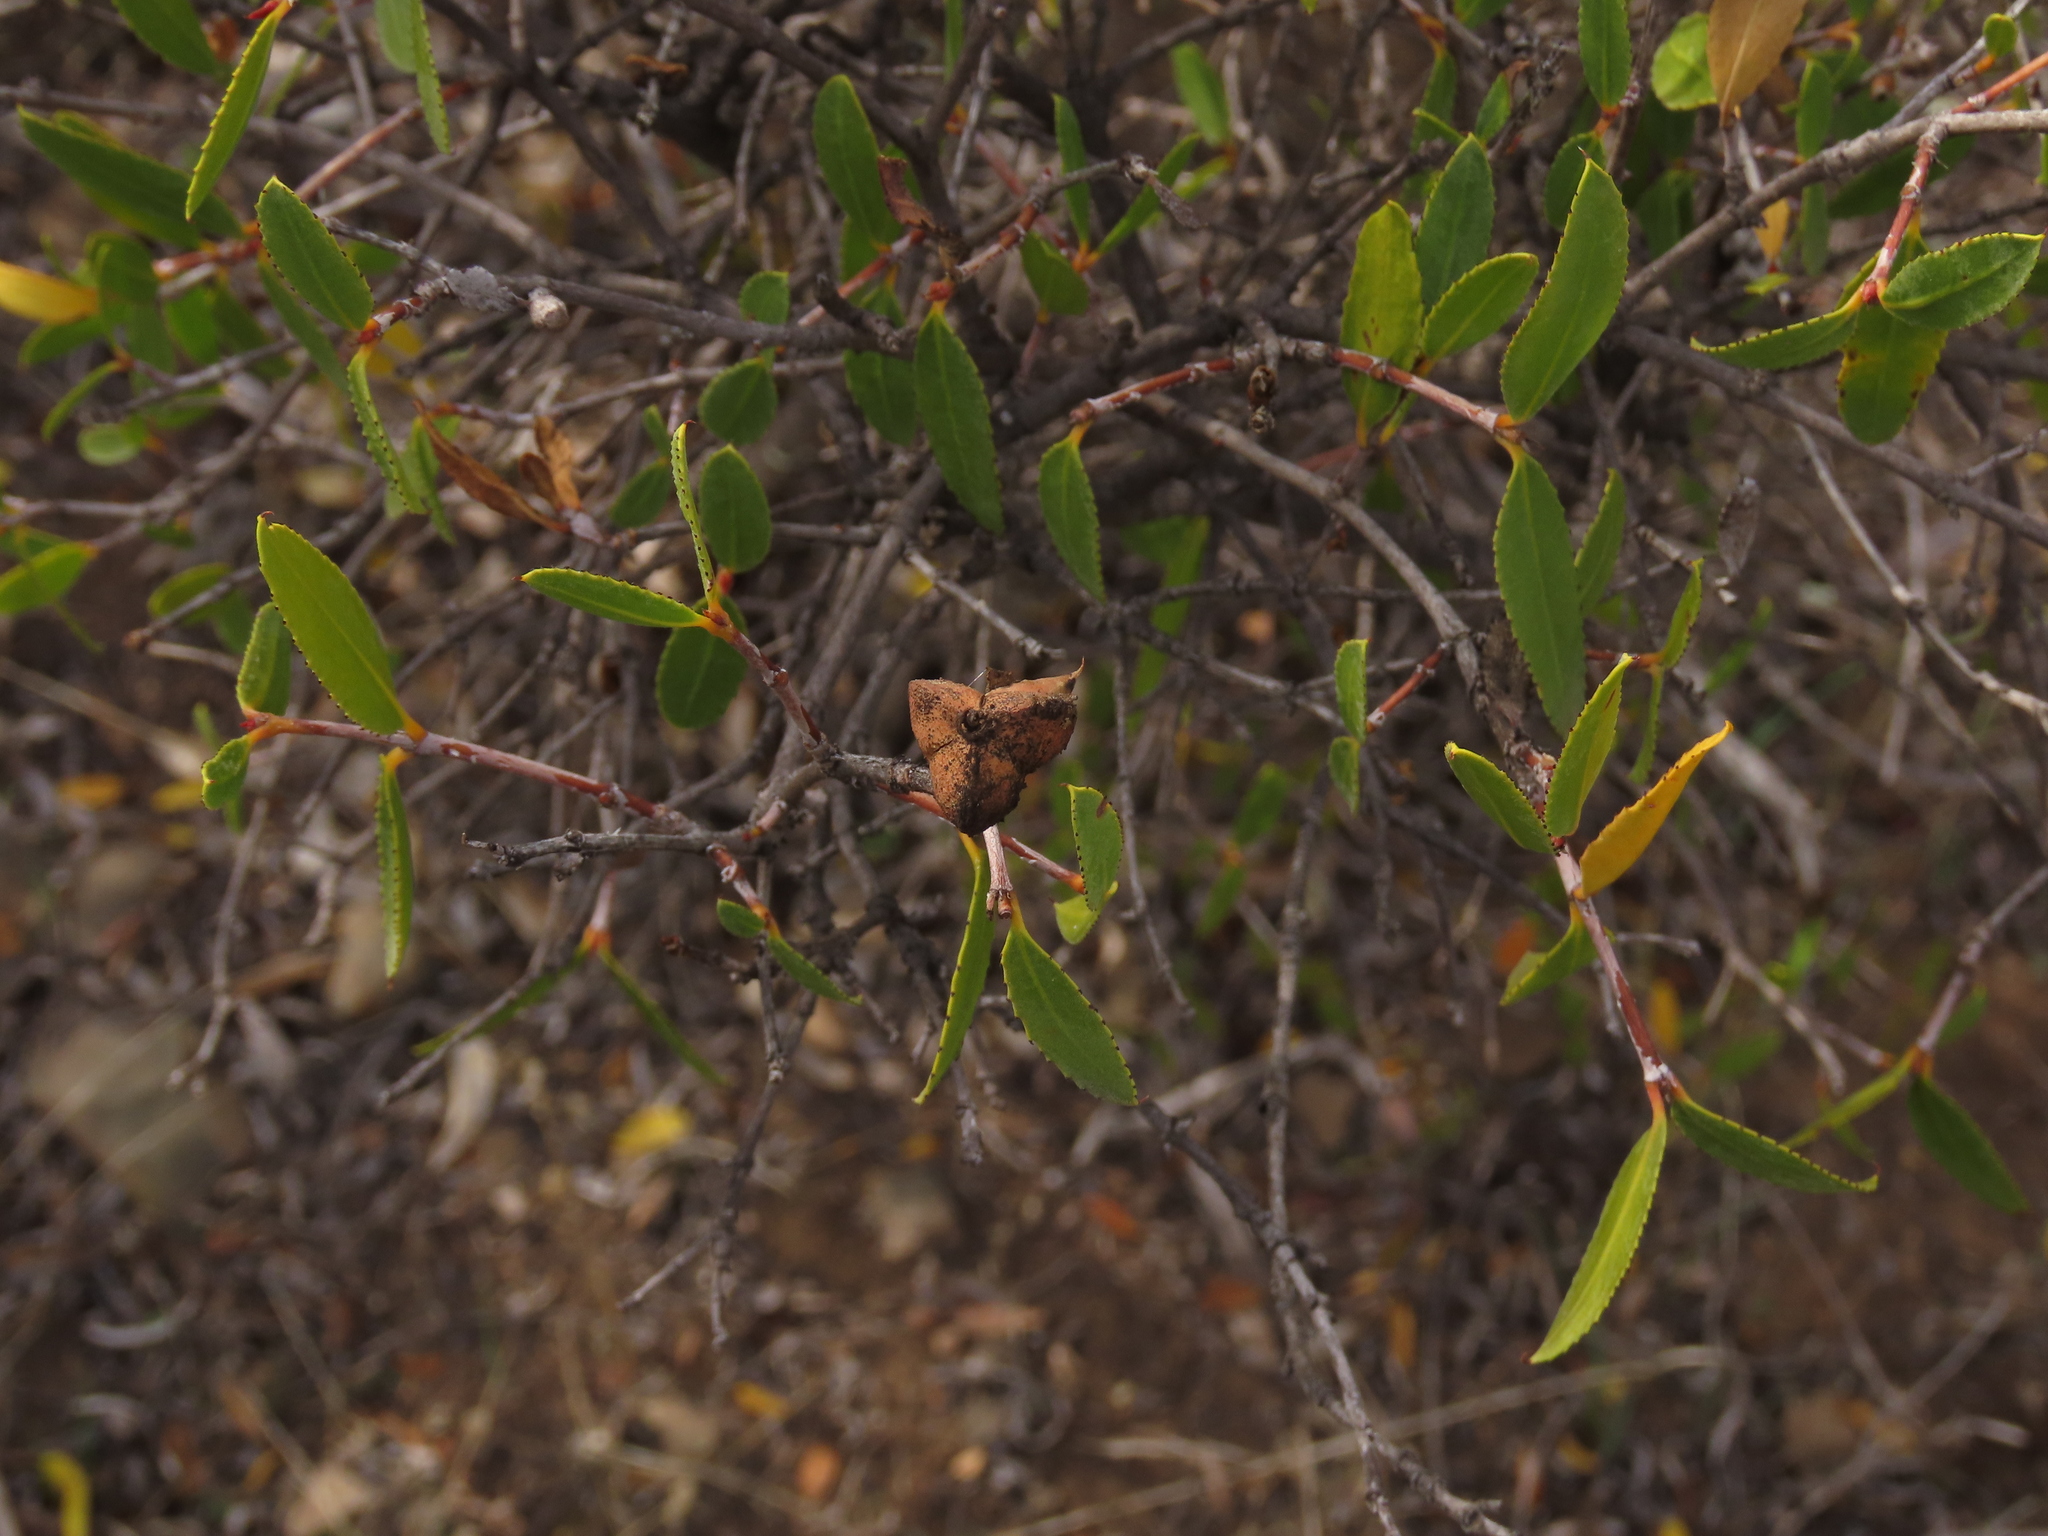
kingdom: Plantae
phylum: Tracheophyta
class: Magnoliopsida
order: Malpighiales
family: Euphorbiaceae
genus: Colliguaja
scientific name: Colliguaja odorifera
